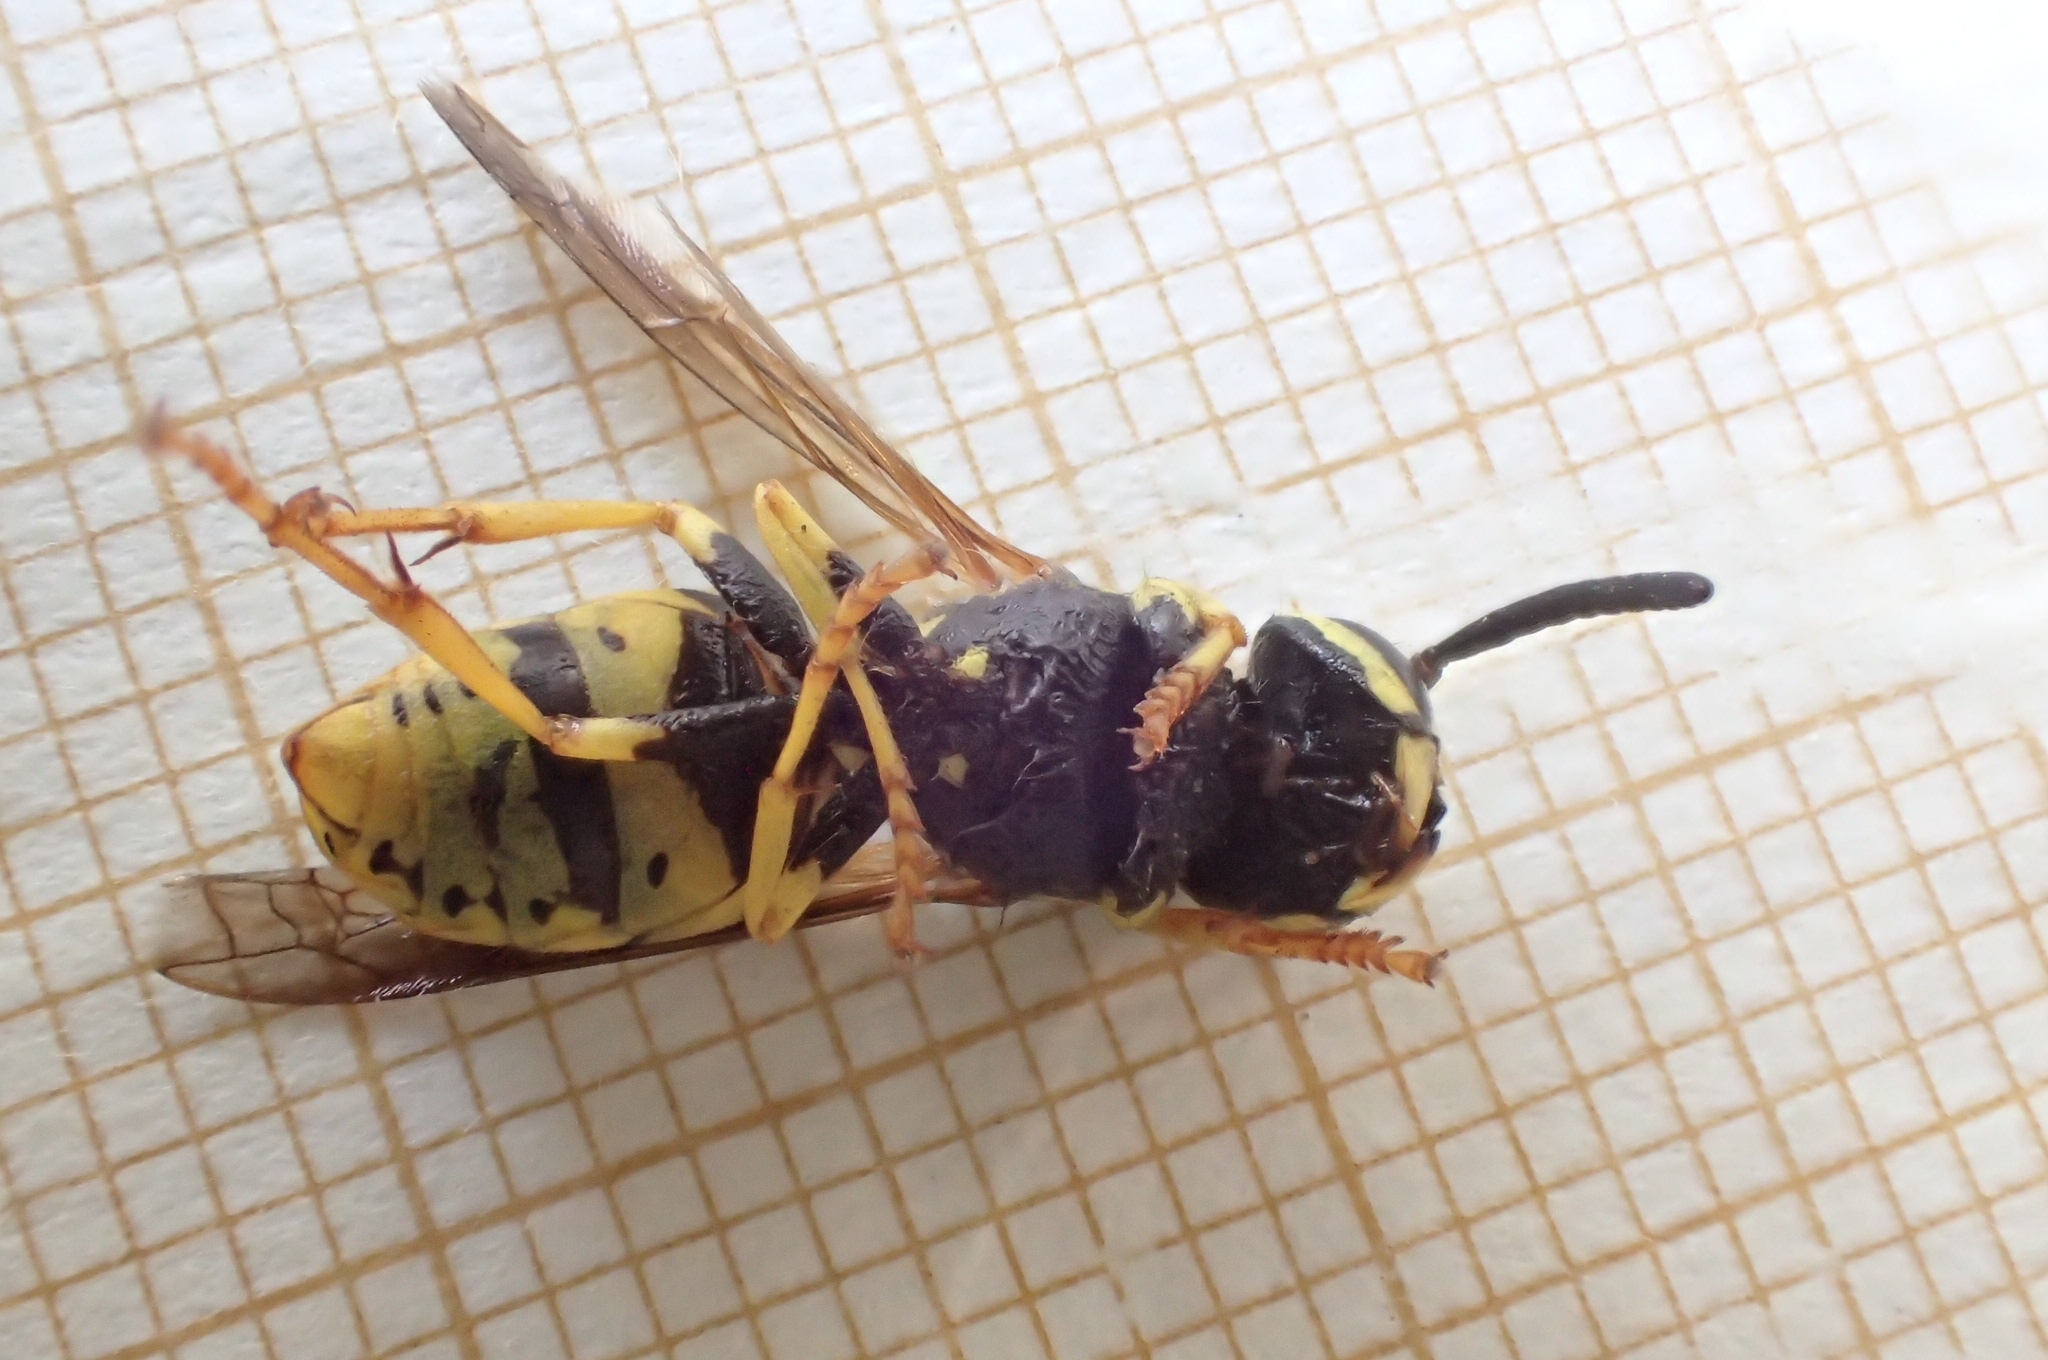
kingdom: Animalia
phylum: Arthropoda
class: Insecta
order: Hymenoptera
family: Vespidae
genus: Vespula
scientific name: Vespula germanica
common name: German wasp
